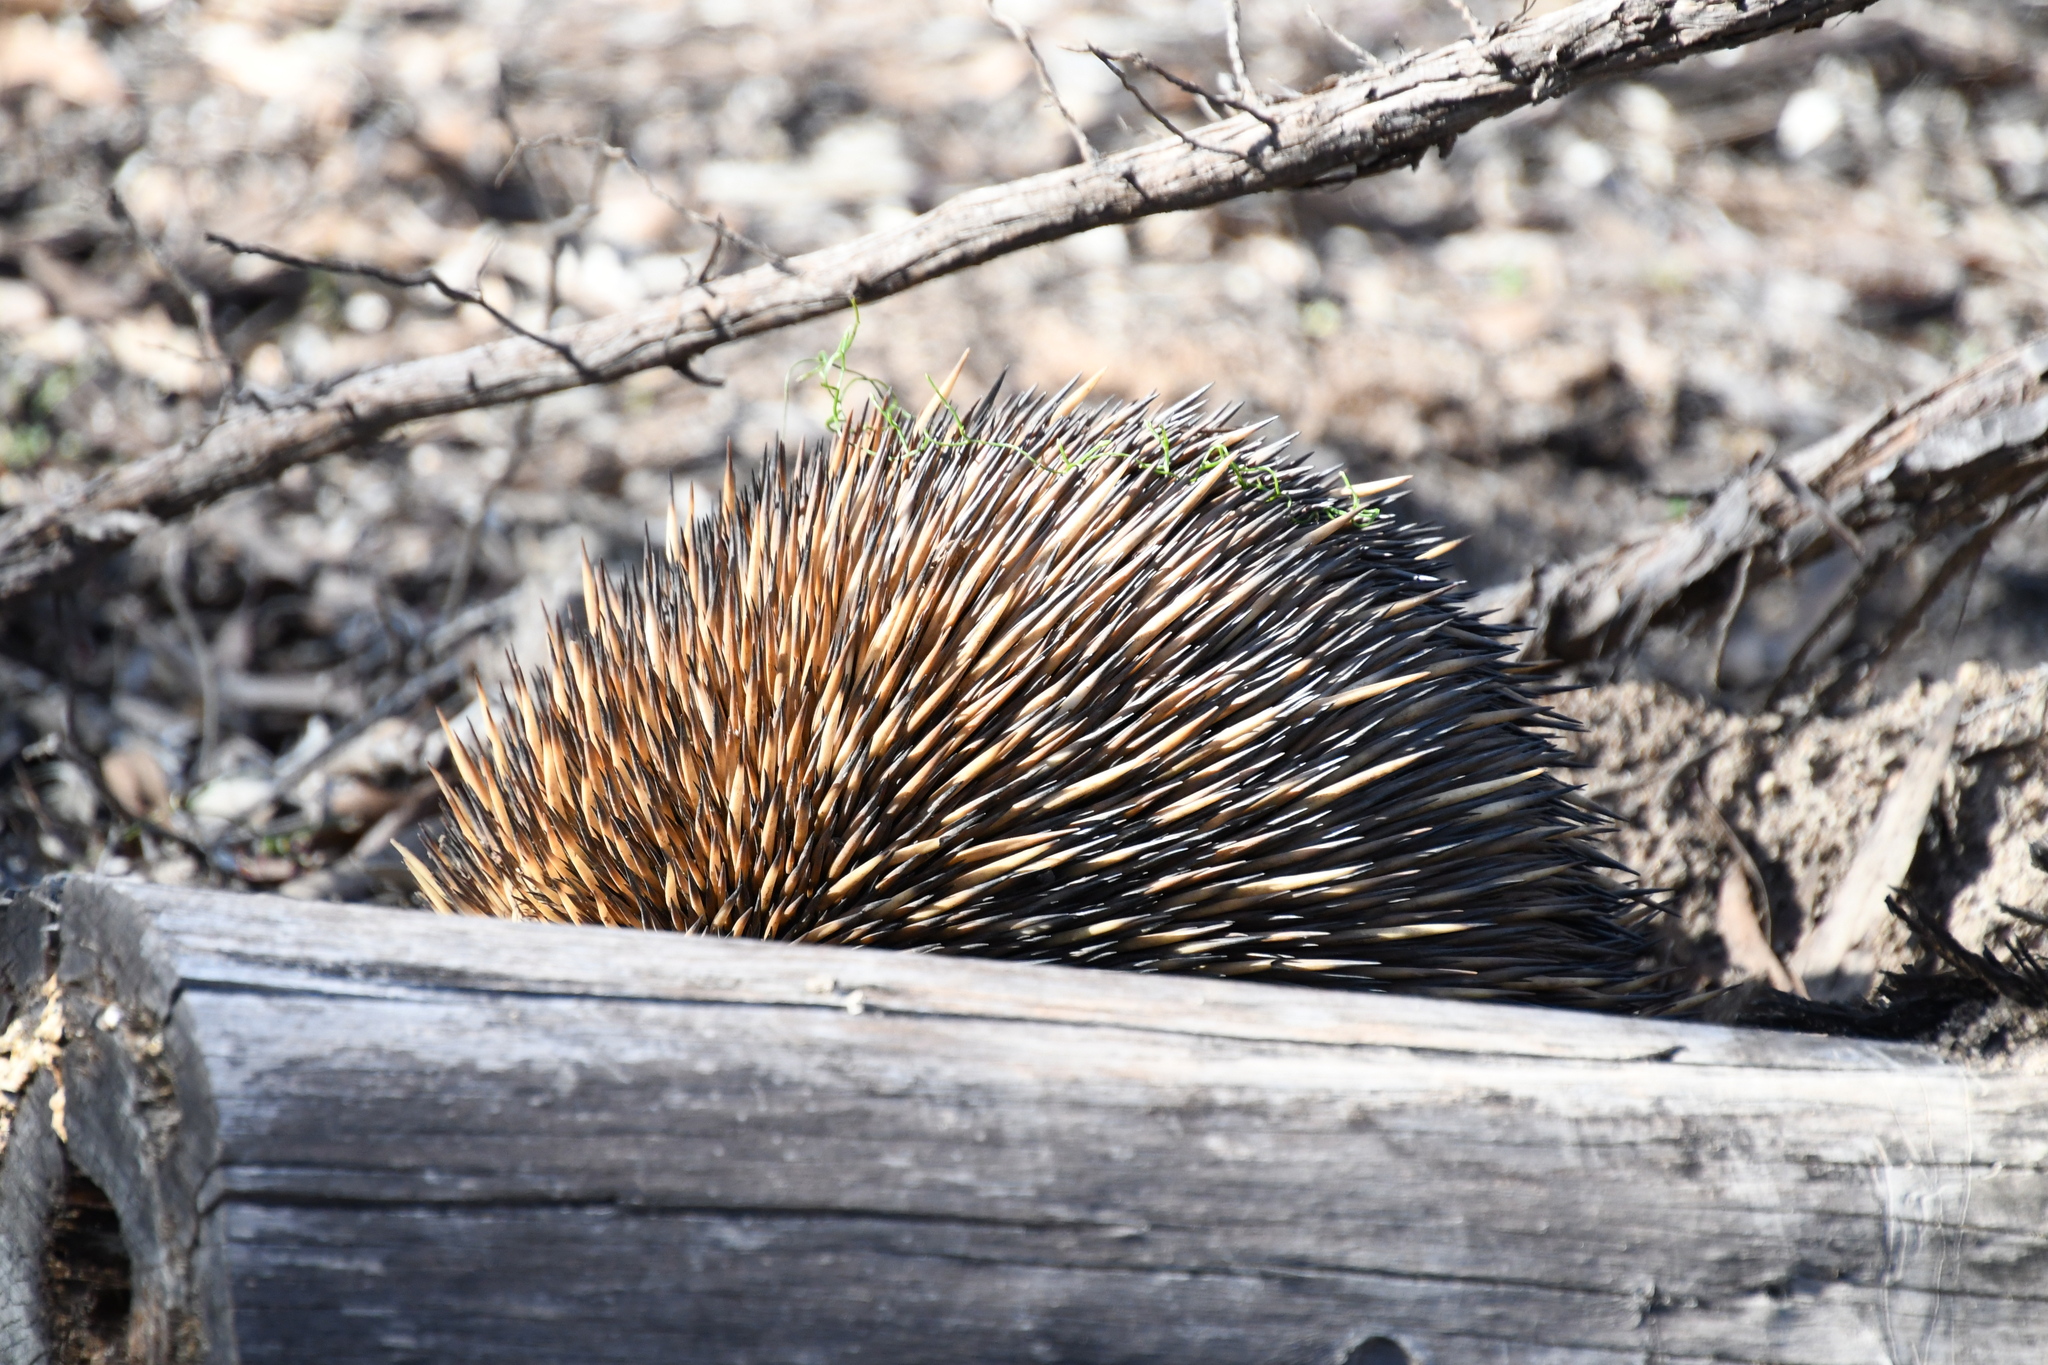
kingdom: Animalia
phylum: Chordata
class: Mammalia
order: Monotremata
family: Tachyglossidae
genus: Tachyglossus
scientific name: Tachyglossus aculeatus
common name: Short-beaked echidna
